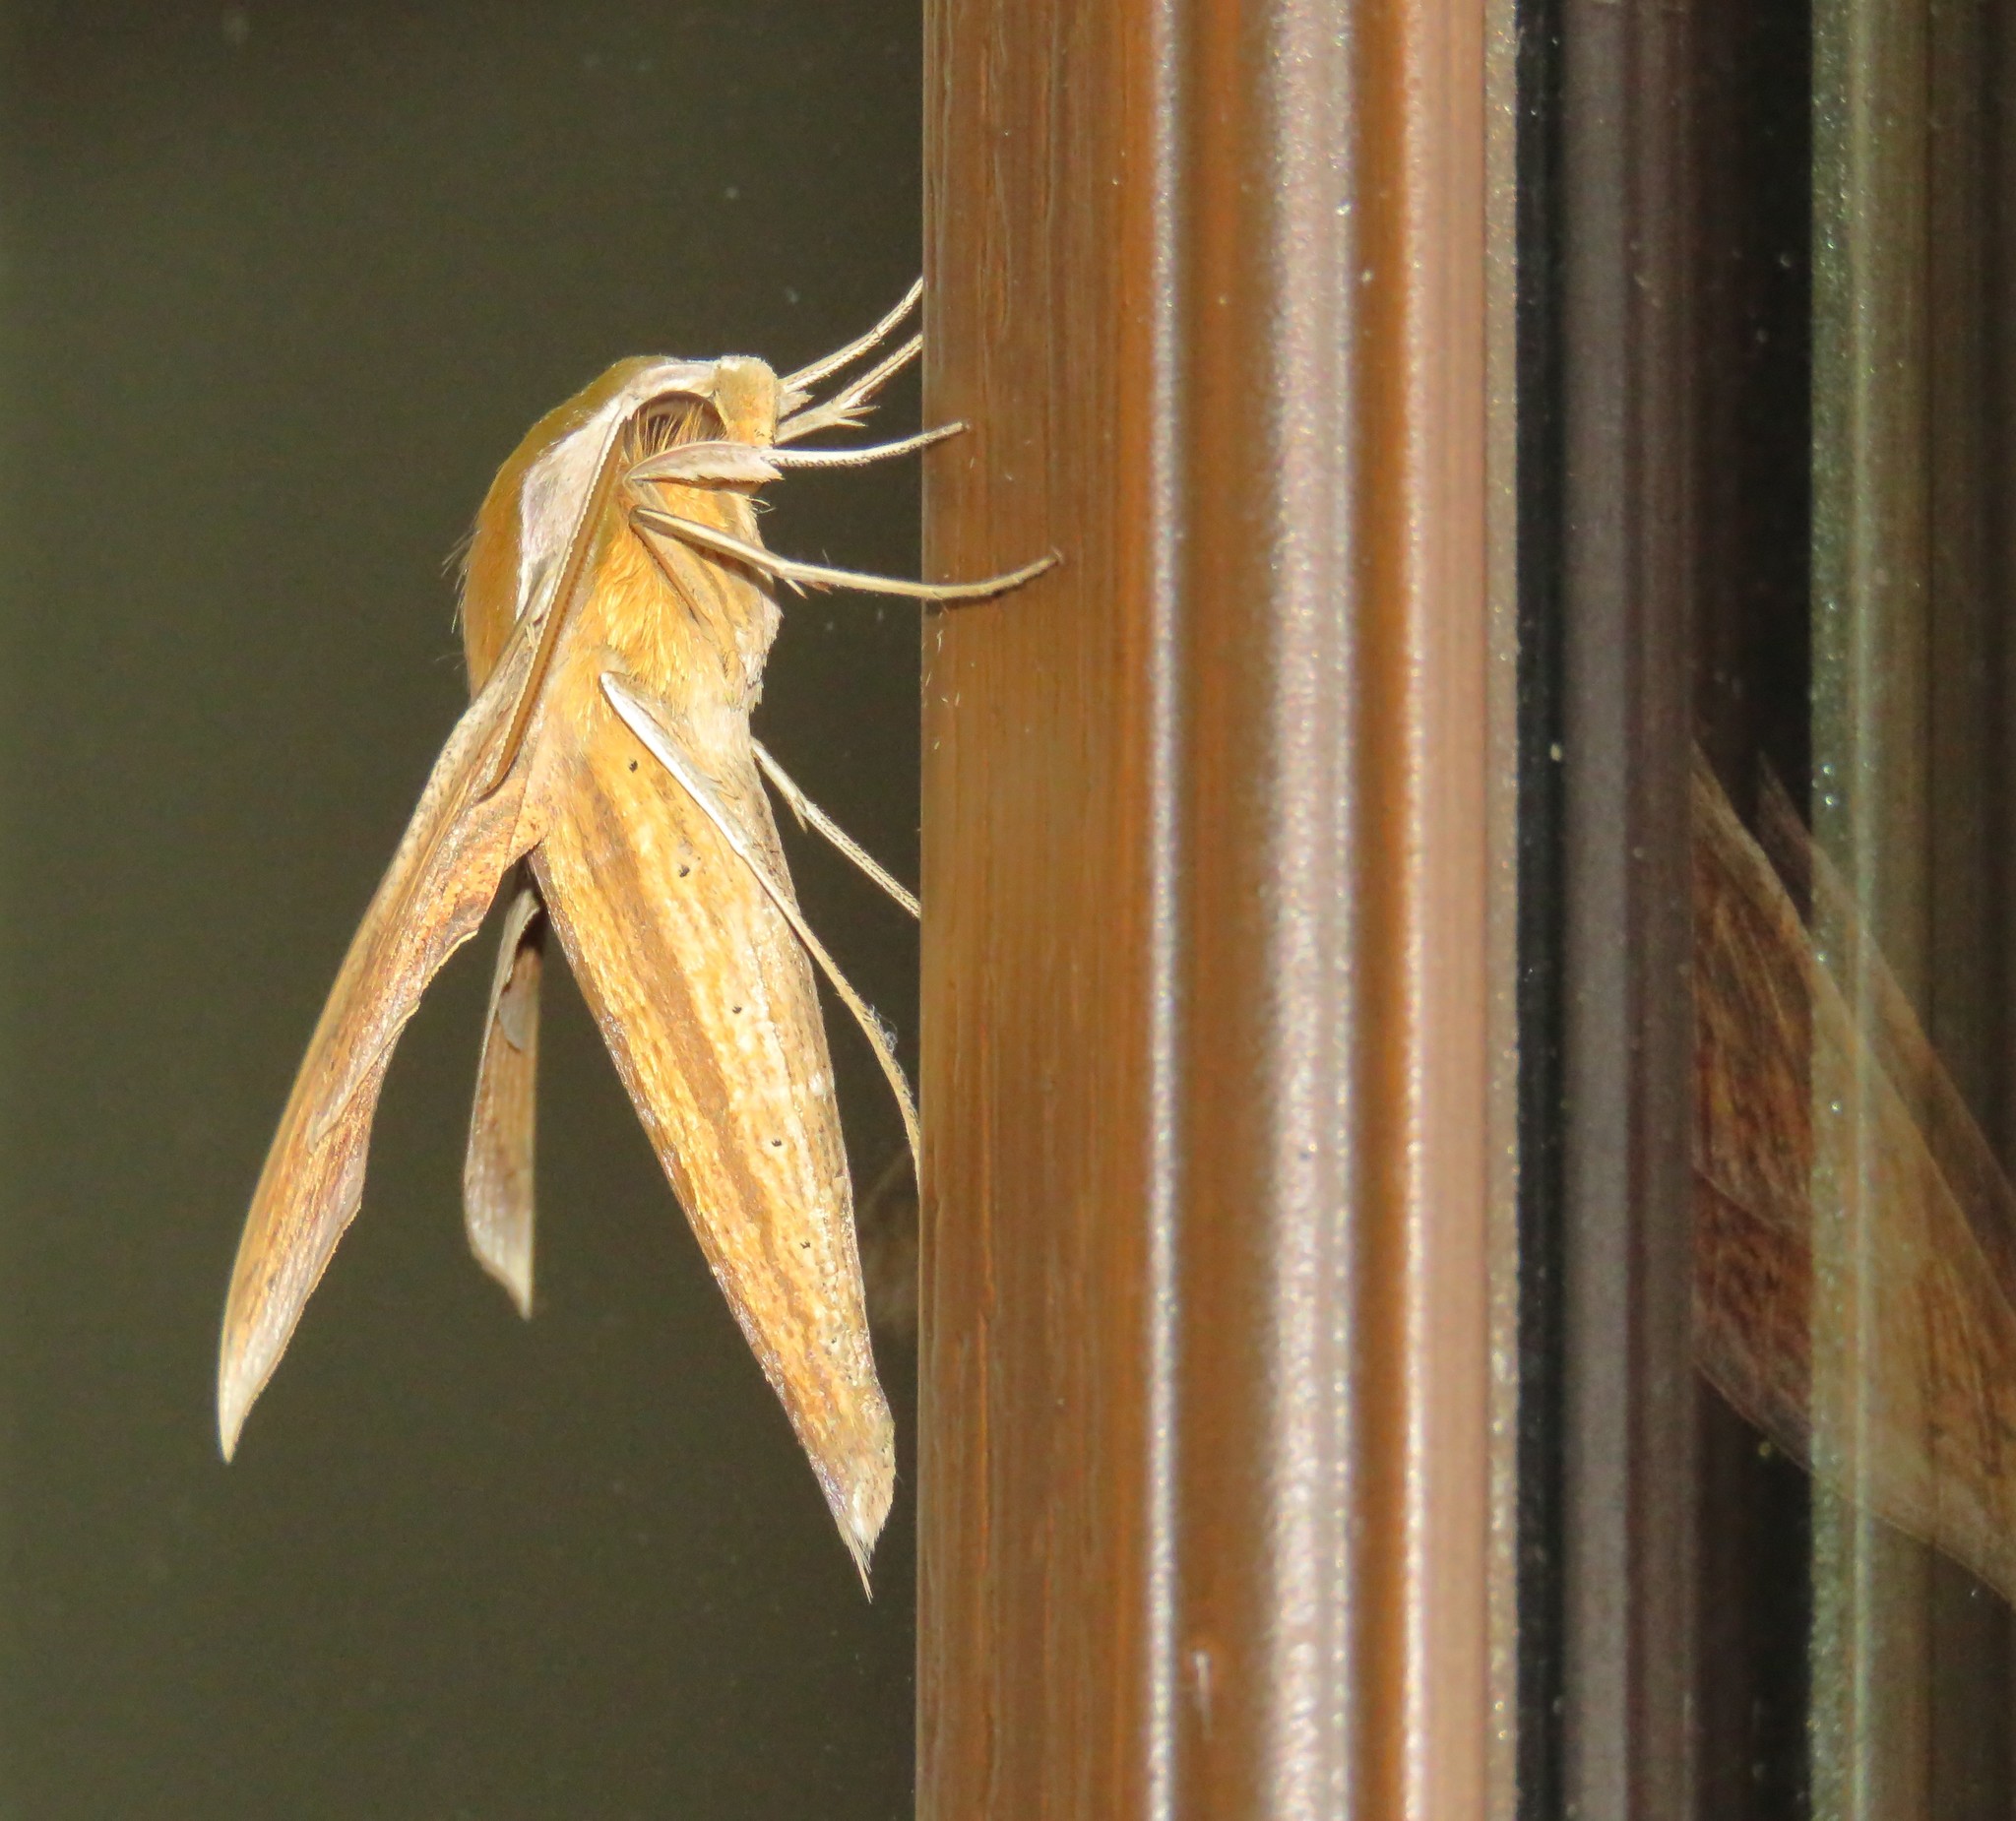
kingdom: Animalia
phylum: Arthropoda
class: Insecta
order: Lepidoptera
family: Sphingidae
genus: Xylophanes
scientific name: Xylophanes tersa
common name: Tersa sphinx
